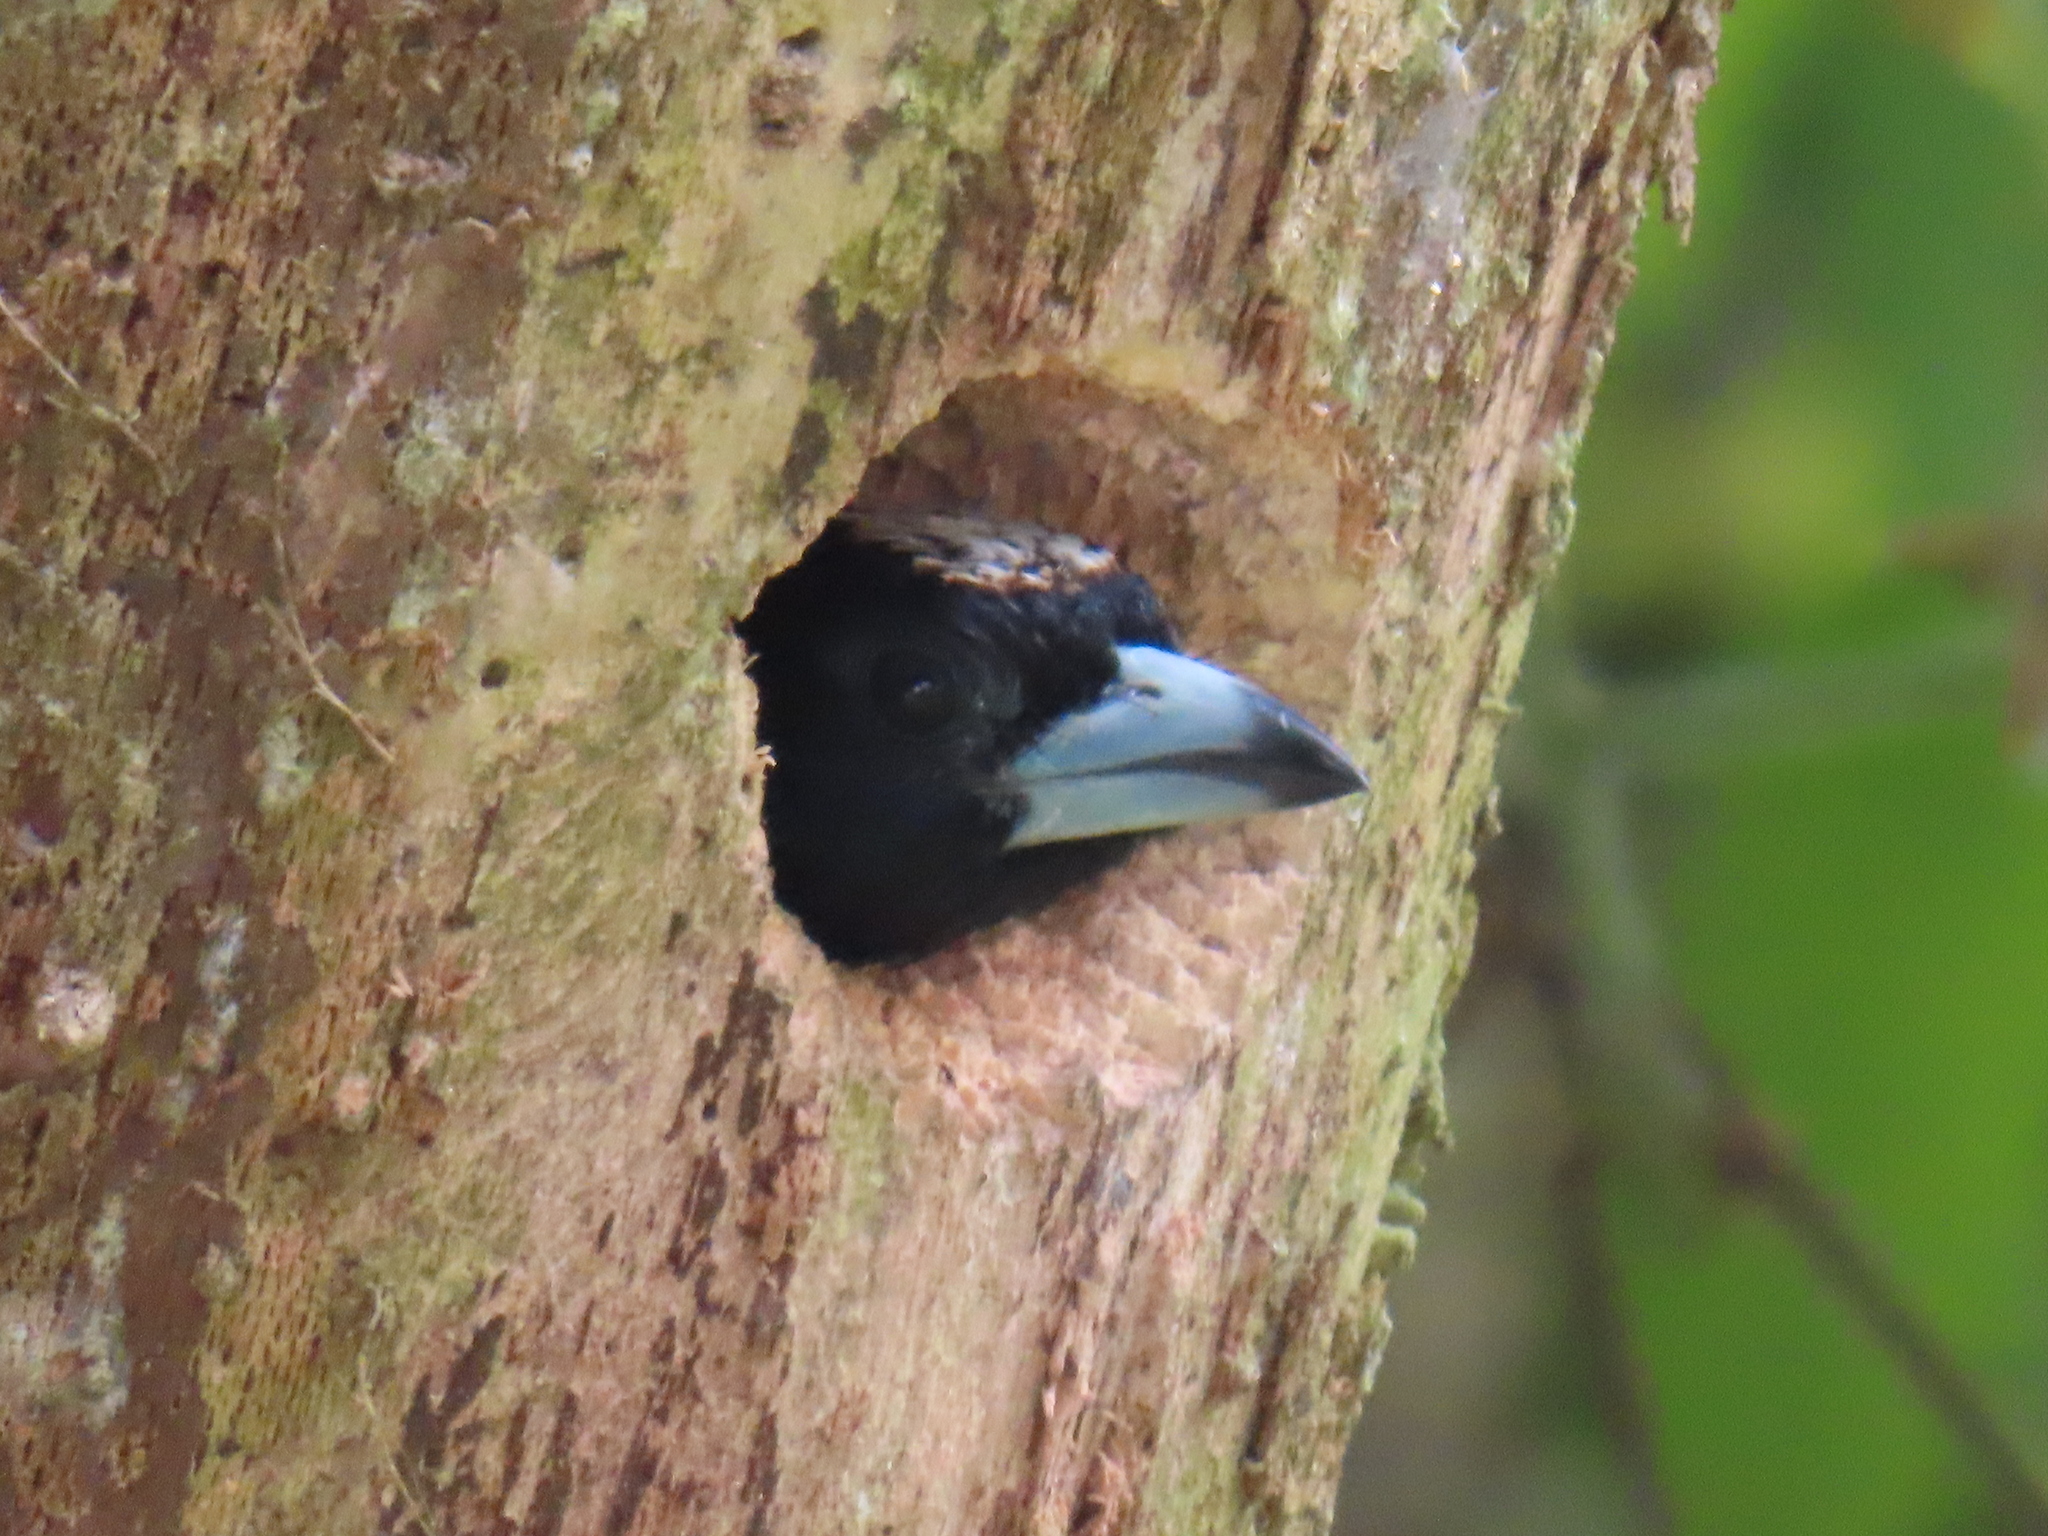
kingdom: Animalia
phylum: Chordata
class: Aves
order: Piciformes
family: Capitonidae
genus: Capito
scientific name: Capito maculicoronatus
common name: Spot-crowned barbet
